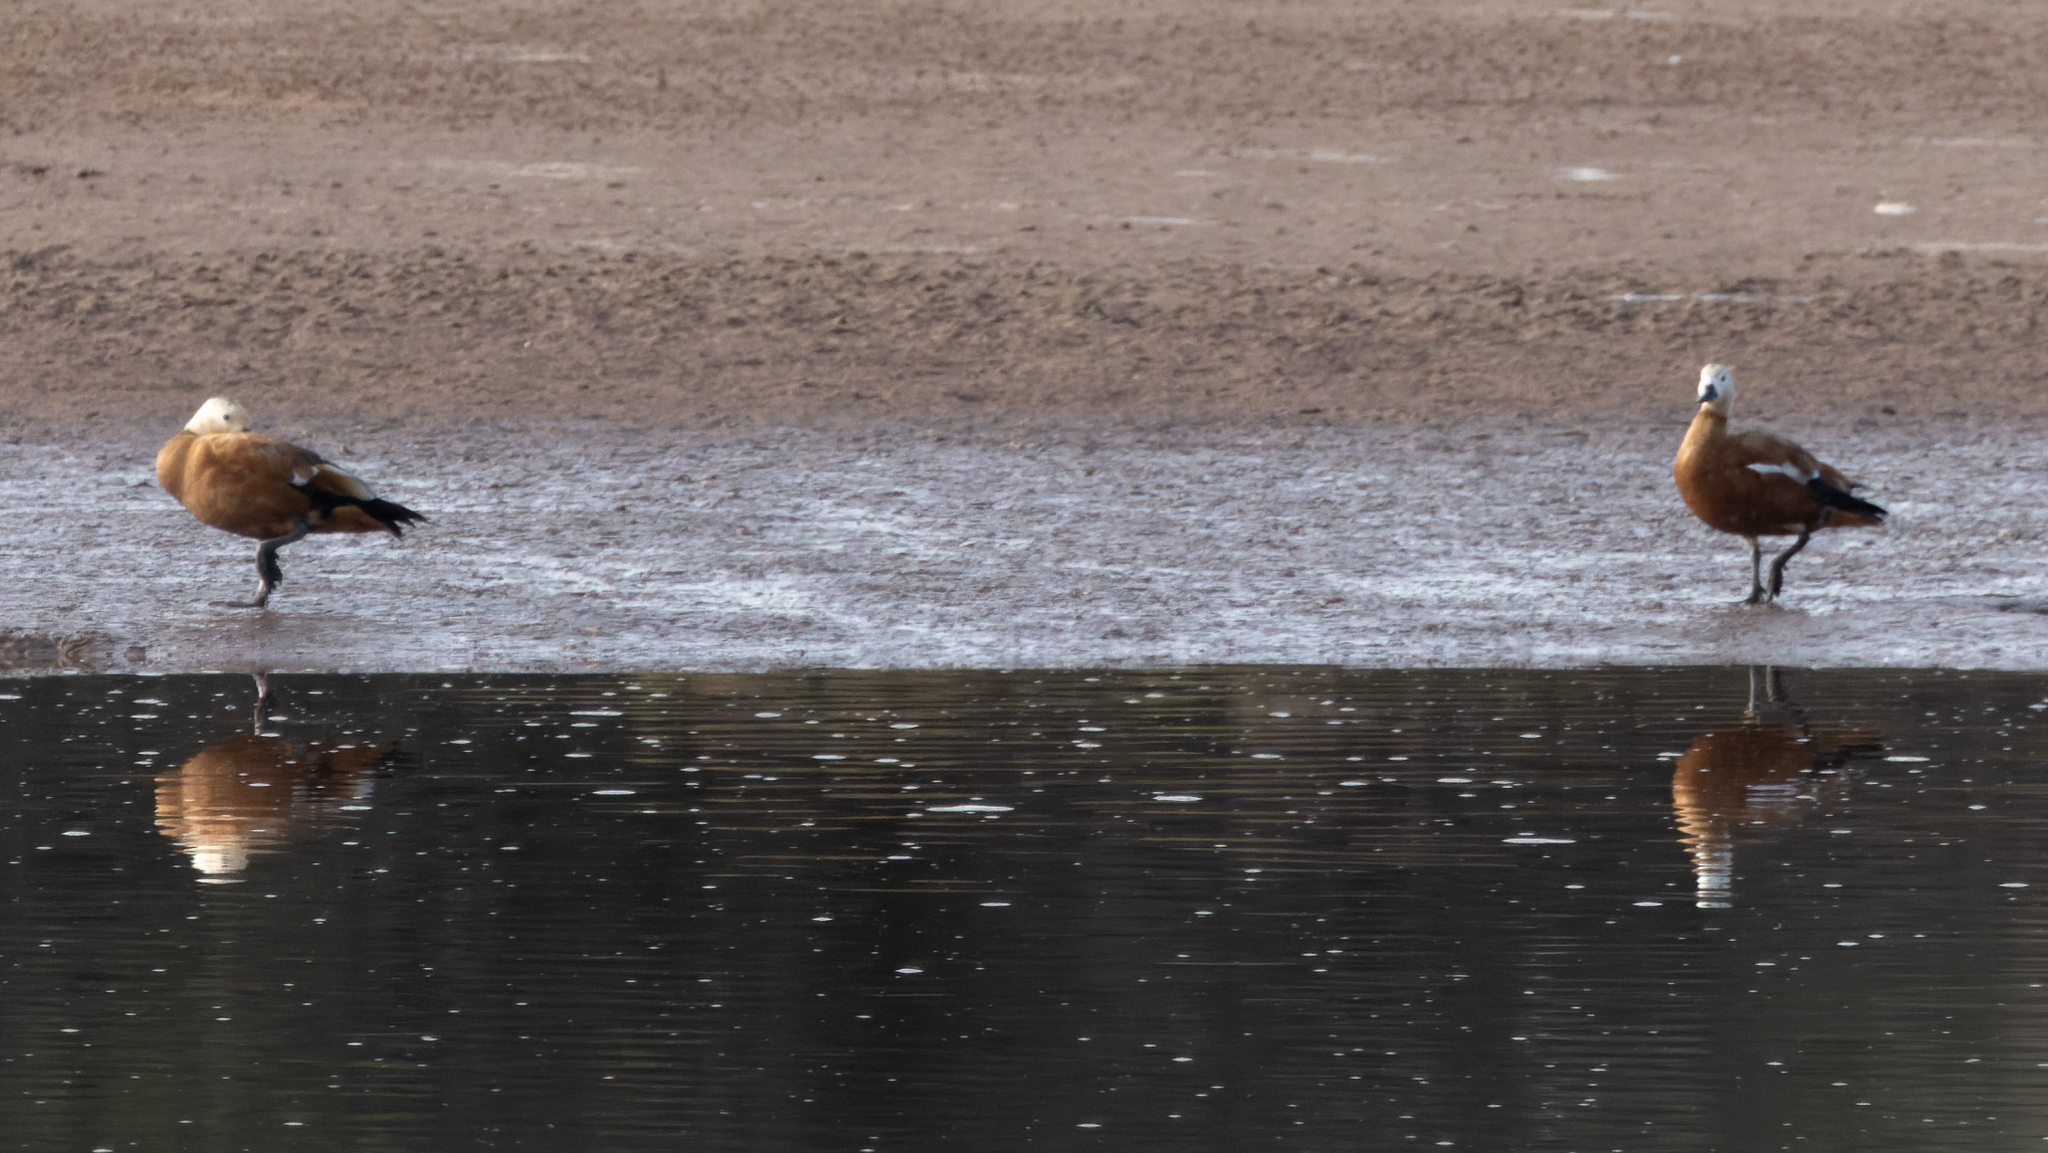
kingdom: Animalia
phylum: Chordata
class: Aves
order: Anseriformes
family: Anatidae
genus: Tadorna
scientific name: Tadorna ferruginea
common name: Ruddy shelduck
